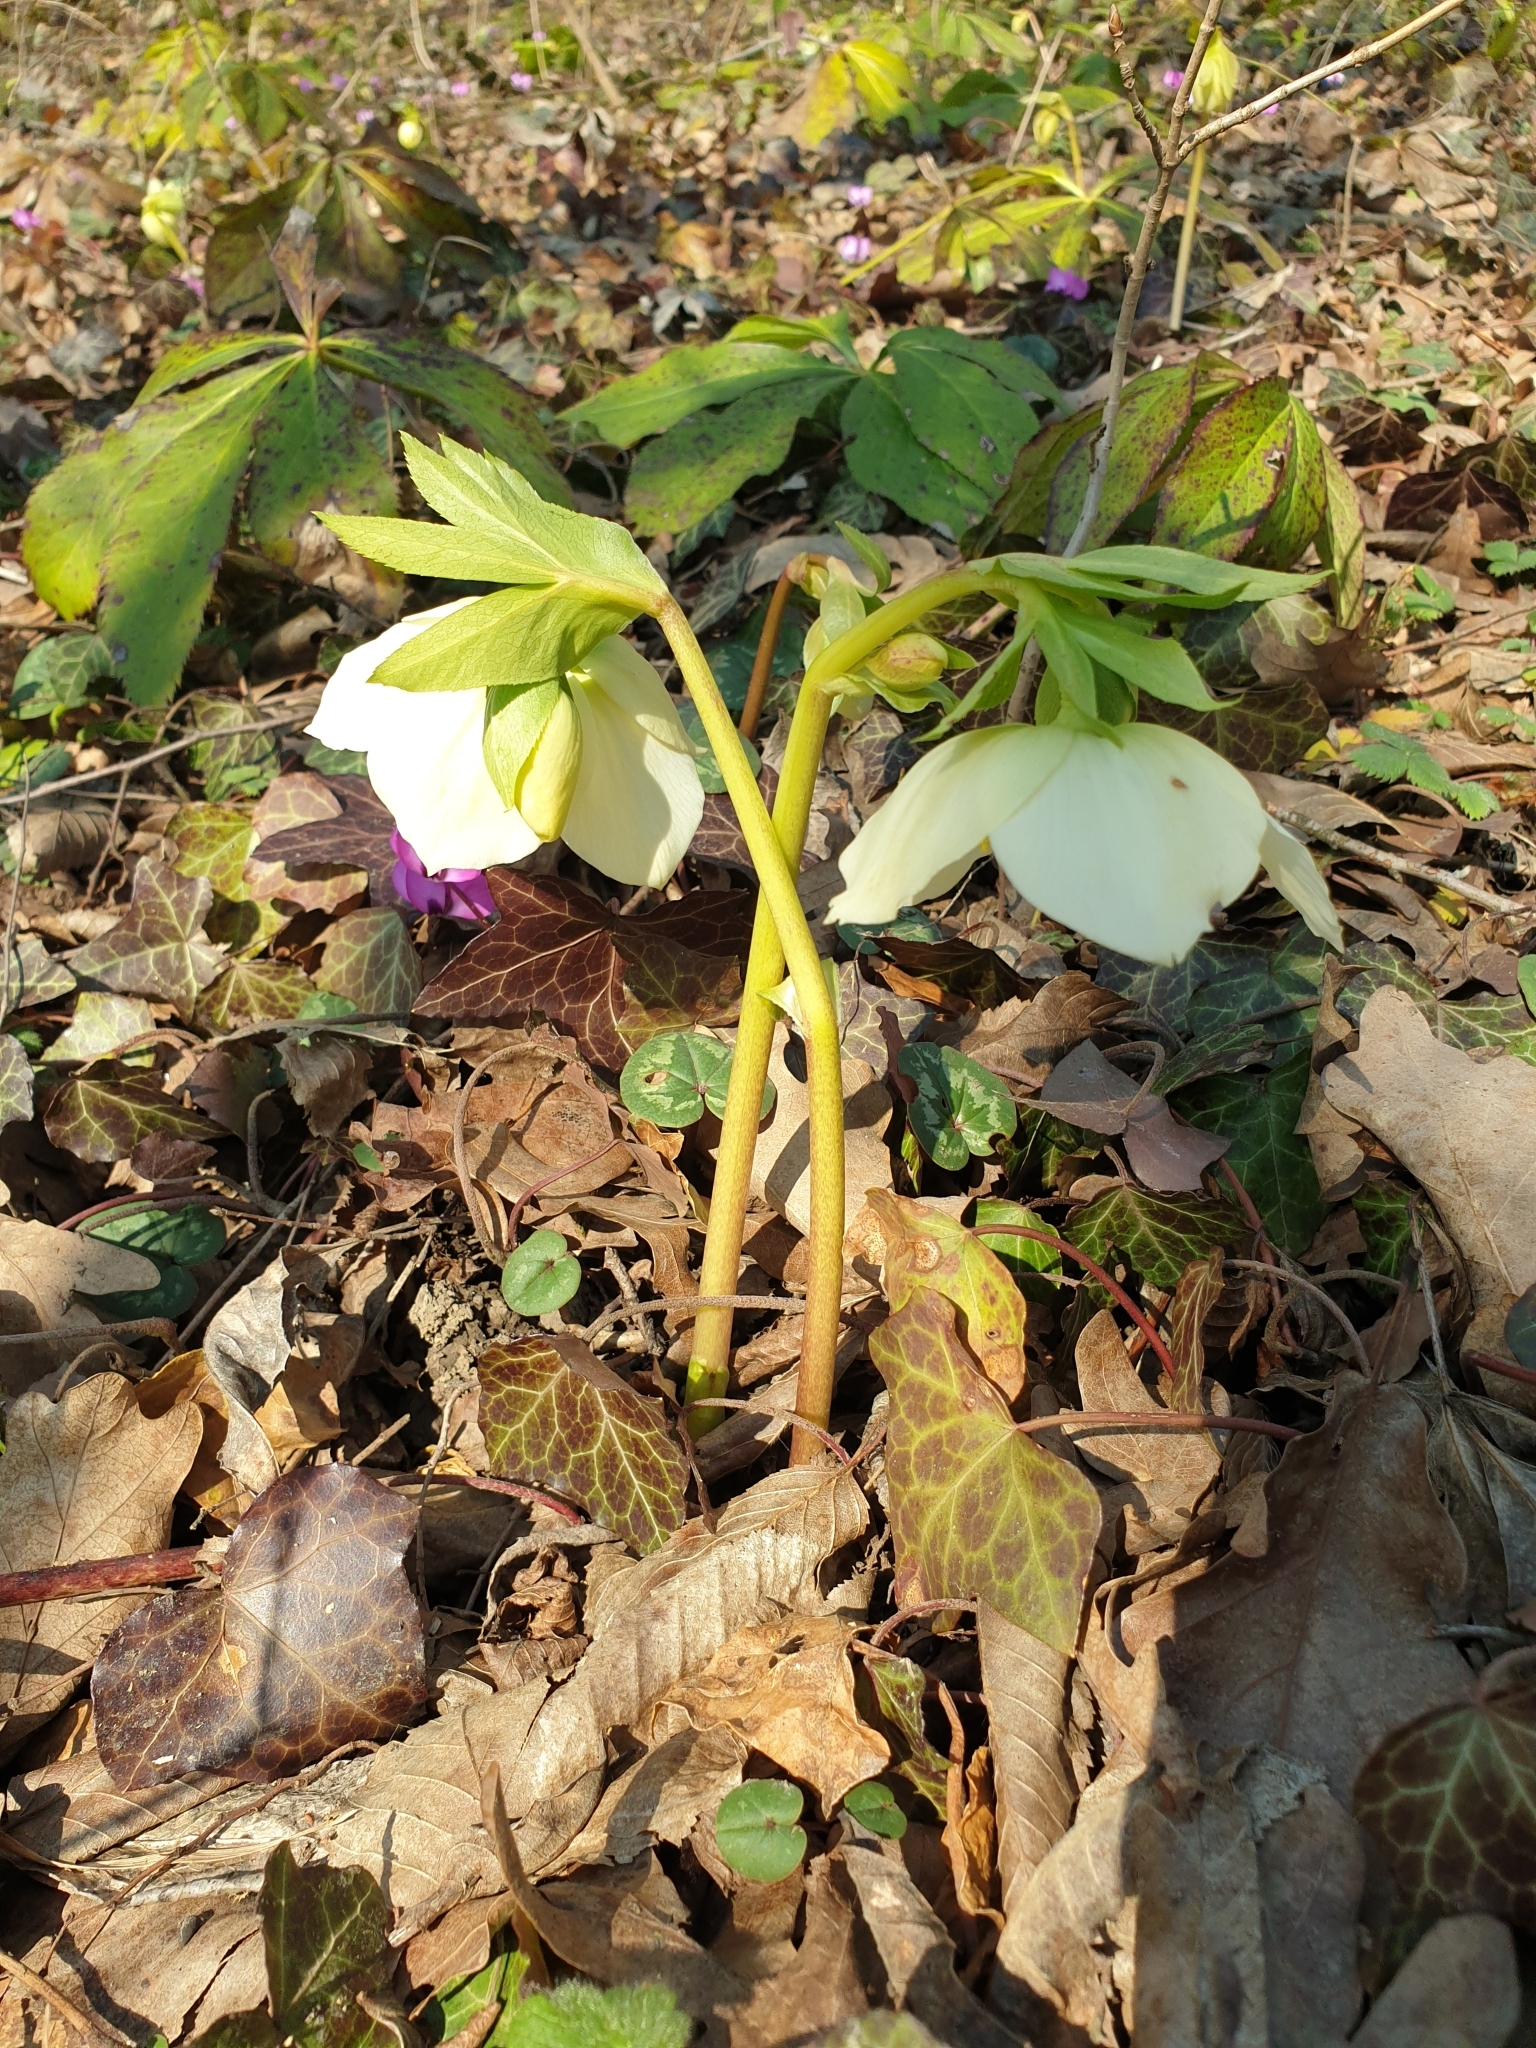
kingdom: Plantae
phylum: Tracheophyta
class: Magnoliopsida
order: Ranunculales
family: Ranunculaceae
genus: Helleborus
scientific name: Helleborus orientalis
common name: Lenten-rose
